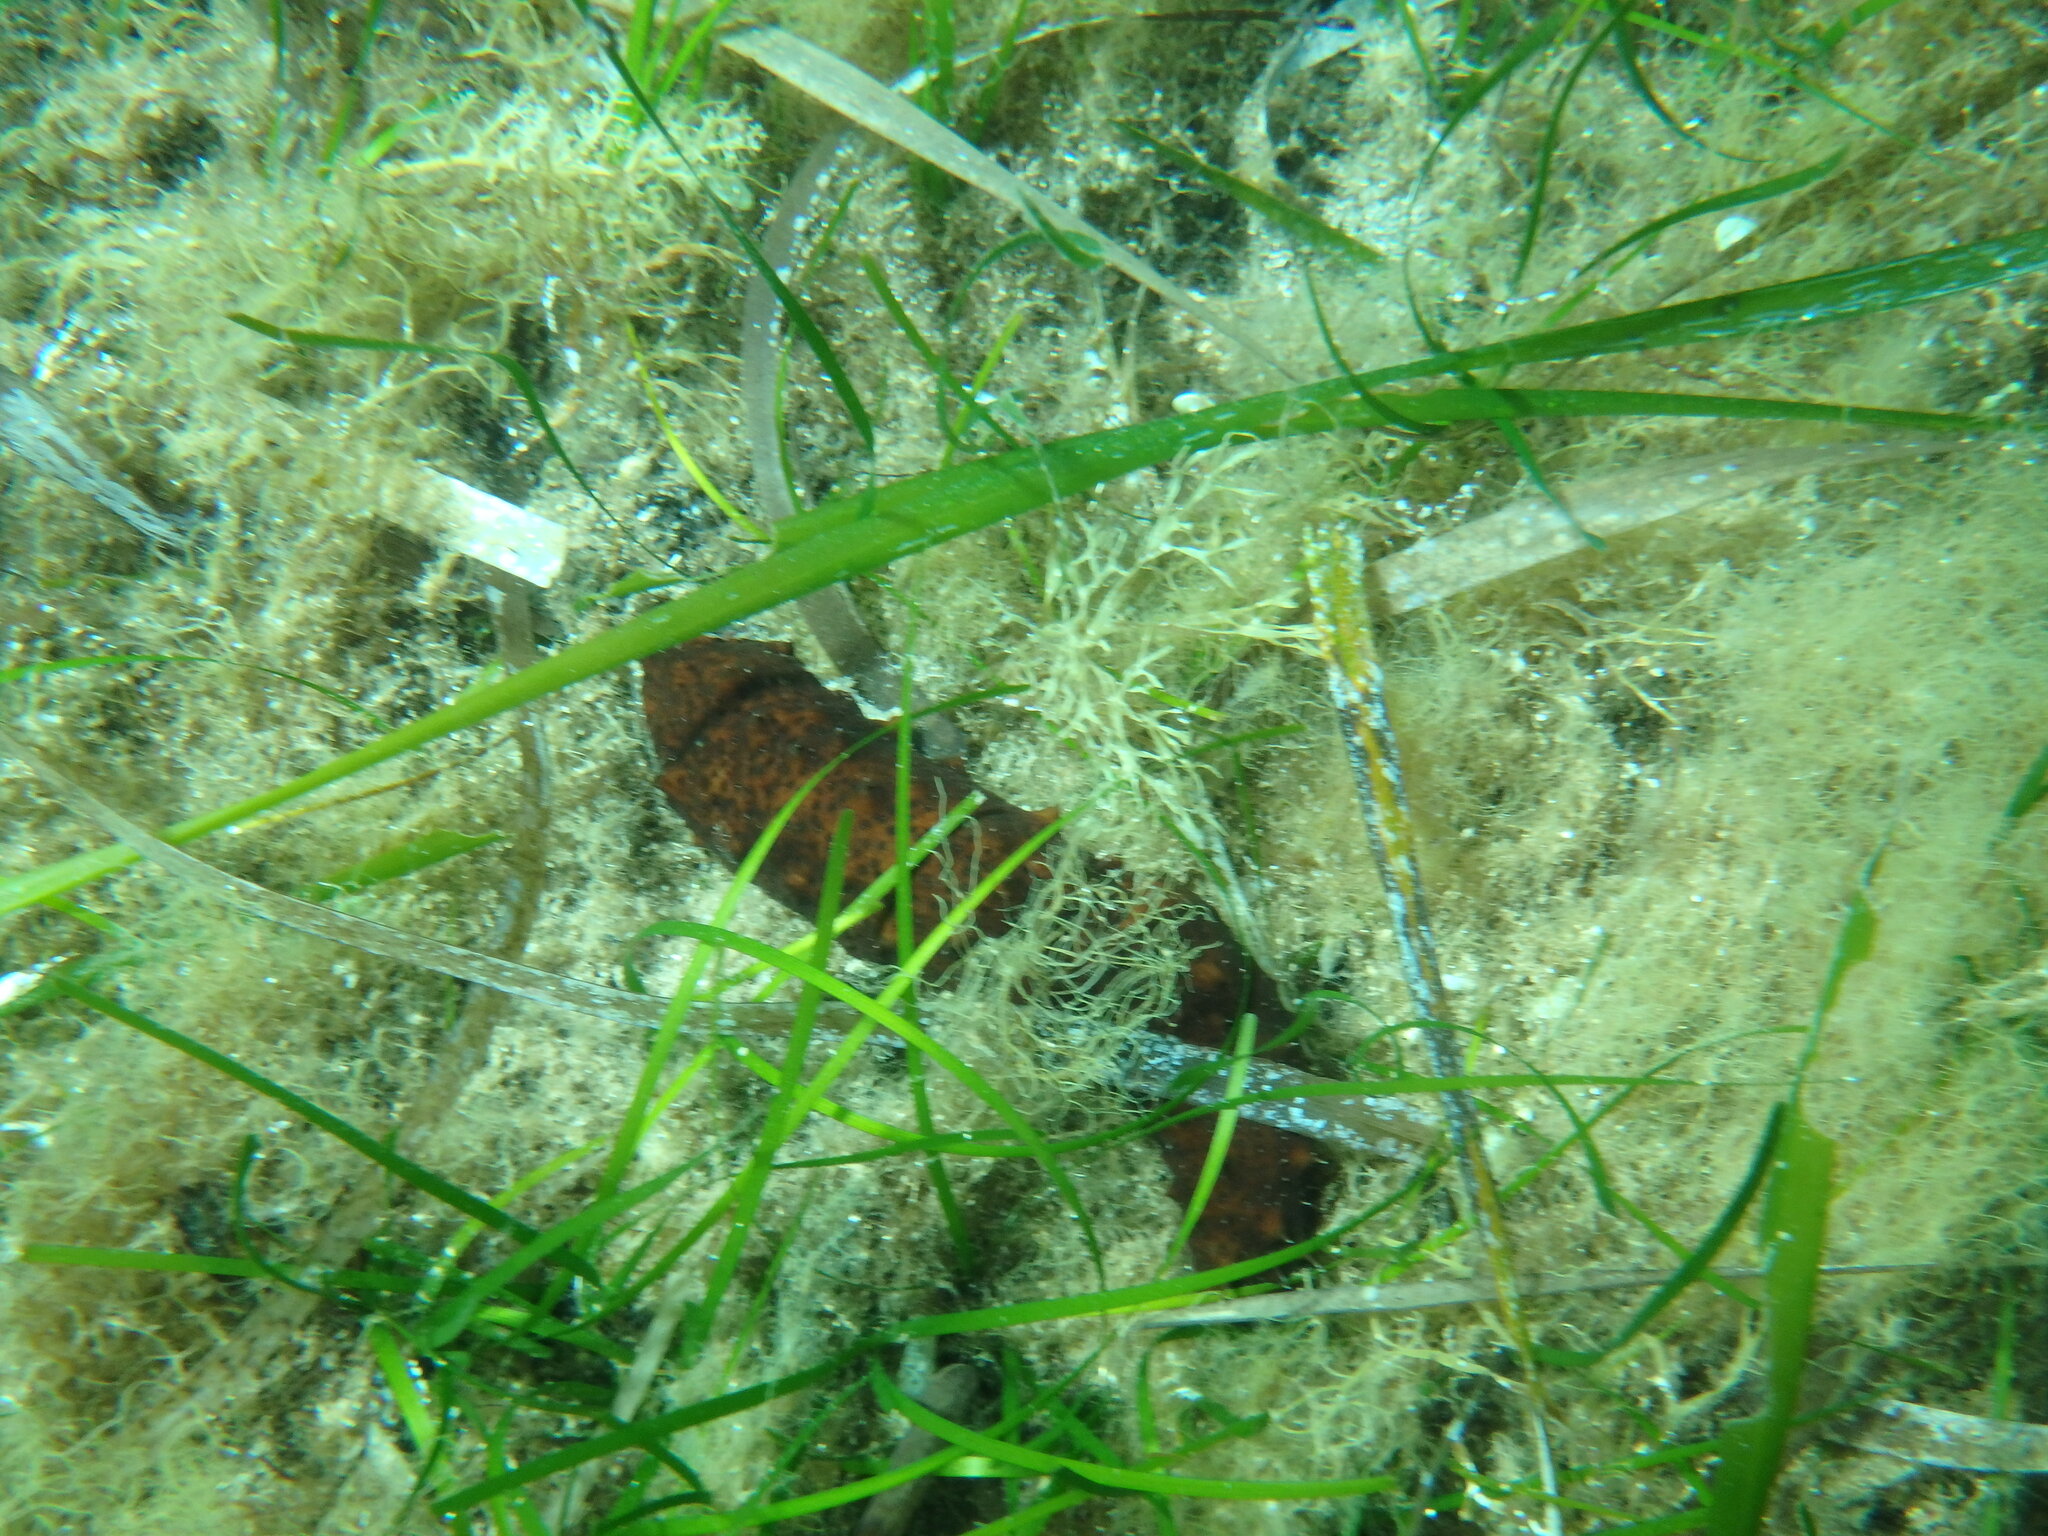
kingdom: Animalia
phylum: Echinodermata
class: Holothuroidea
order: Holothuriida
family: Holothuriidae
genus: Holothuria
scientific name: Holothuria poli
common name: White spot cucumber
